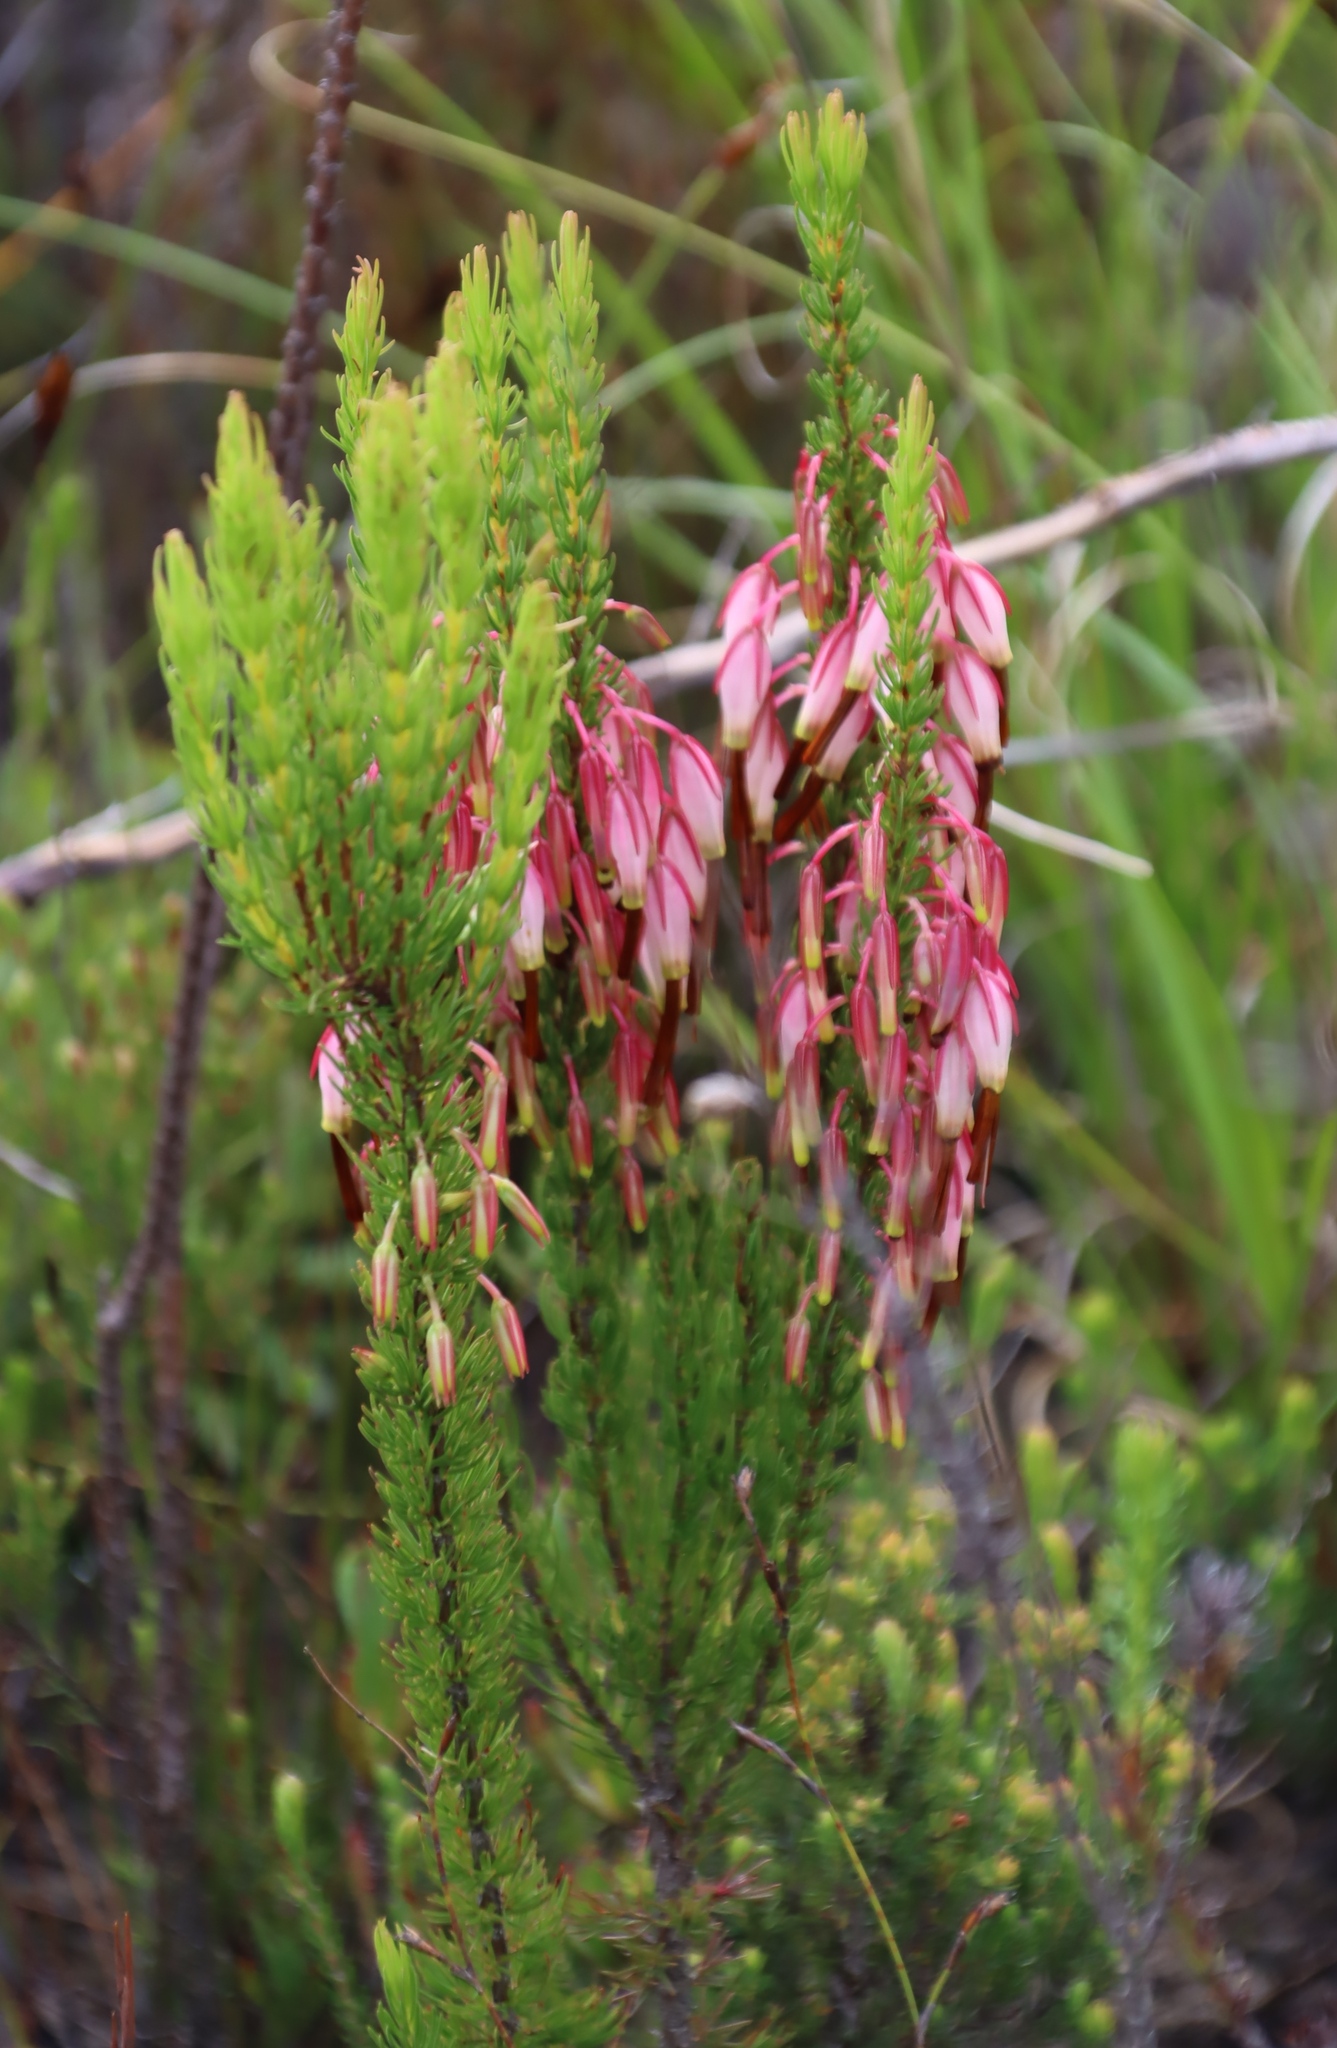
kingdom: Plantae
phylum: Tracheophyta
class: Magnoliopsida
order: Ericales
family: Ericaceae
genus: Erica
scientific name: Erica plukenetii
